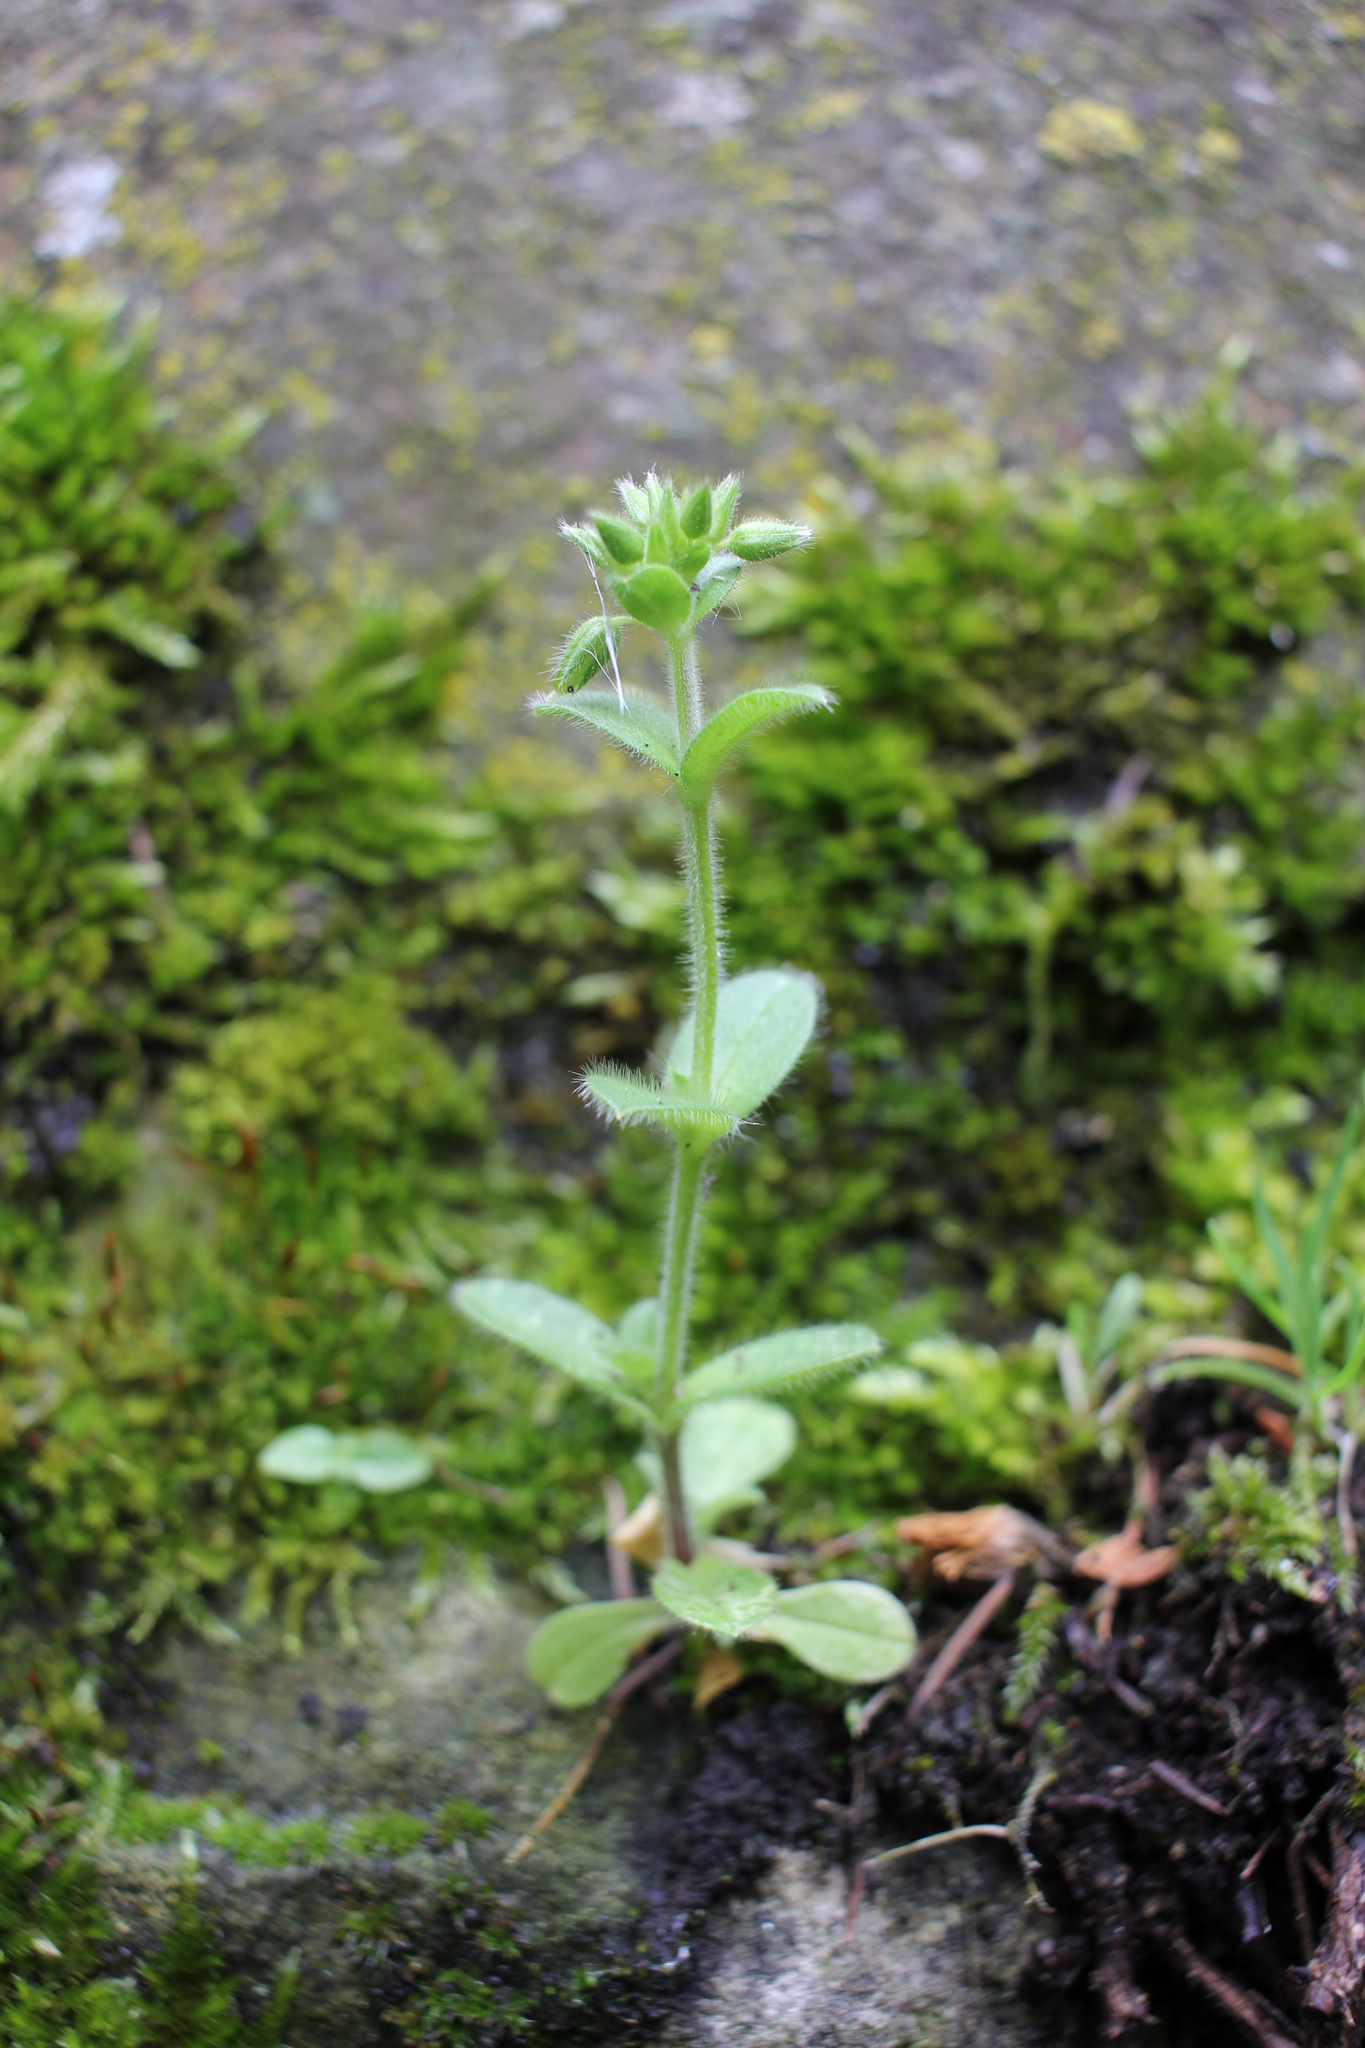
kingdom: Plantae
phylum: Tracheophyta
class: Magnoliopsida
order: Caryophyllales
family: Caryophyllaceae
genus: Cerastium
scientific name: Cerastium glomeratum
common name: Sticky chickweed
